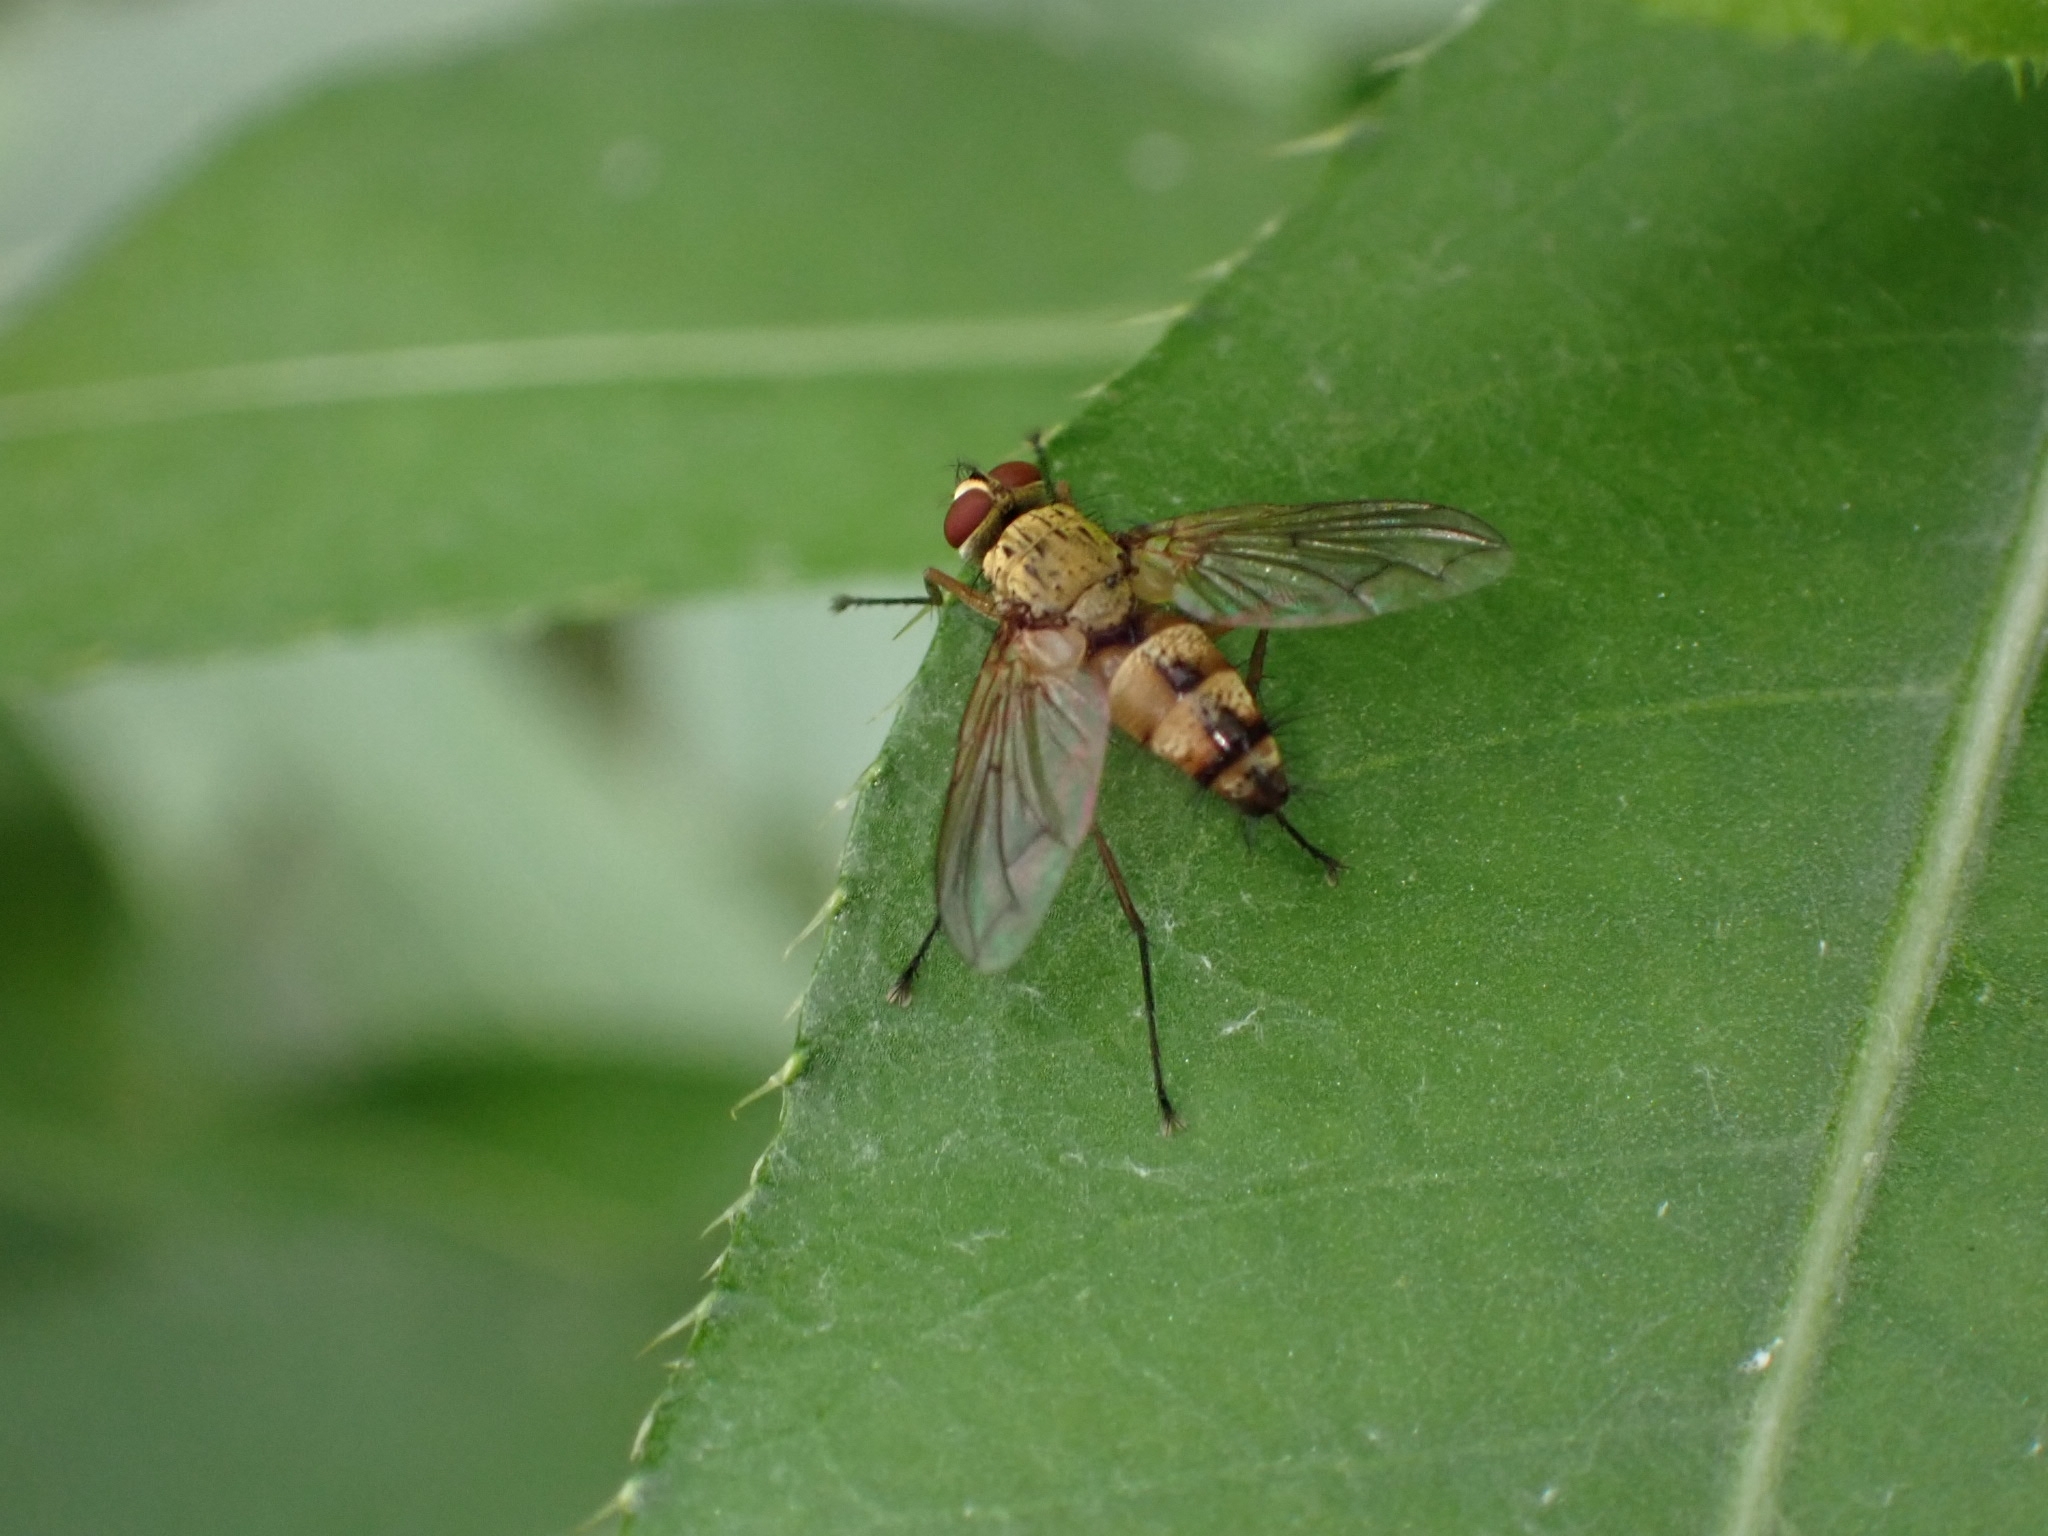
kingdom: Animalia
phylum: Arthropoda
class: Insecta
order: Diptera
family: Tachinidae
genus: Dexia
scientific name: Dexia vacua
